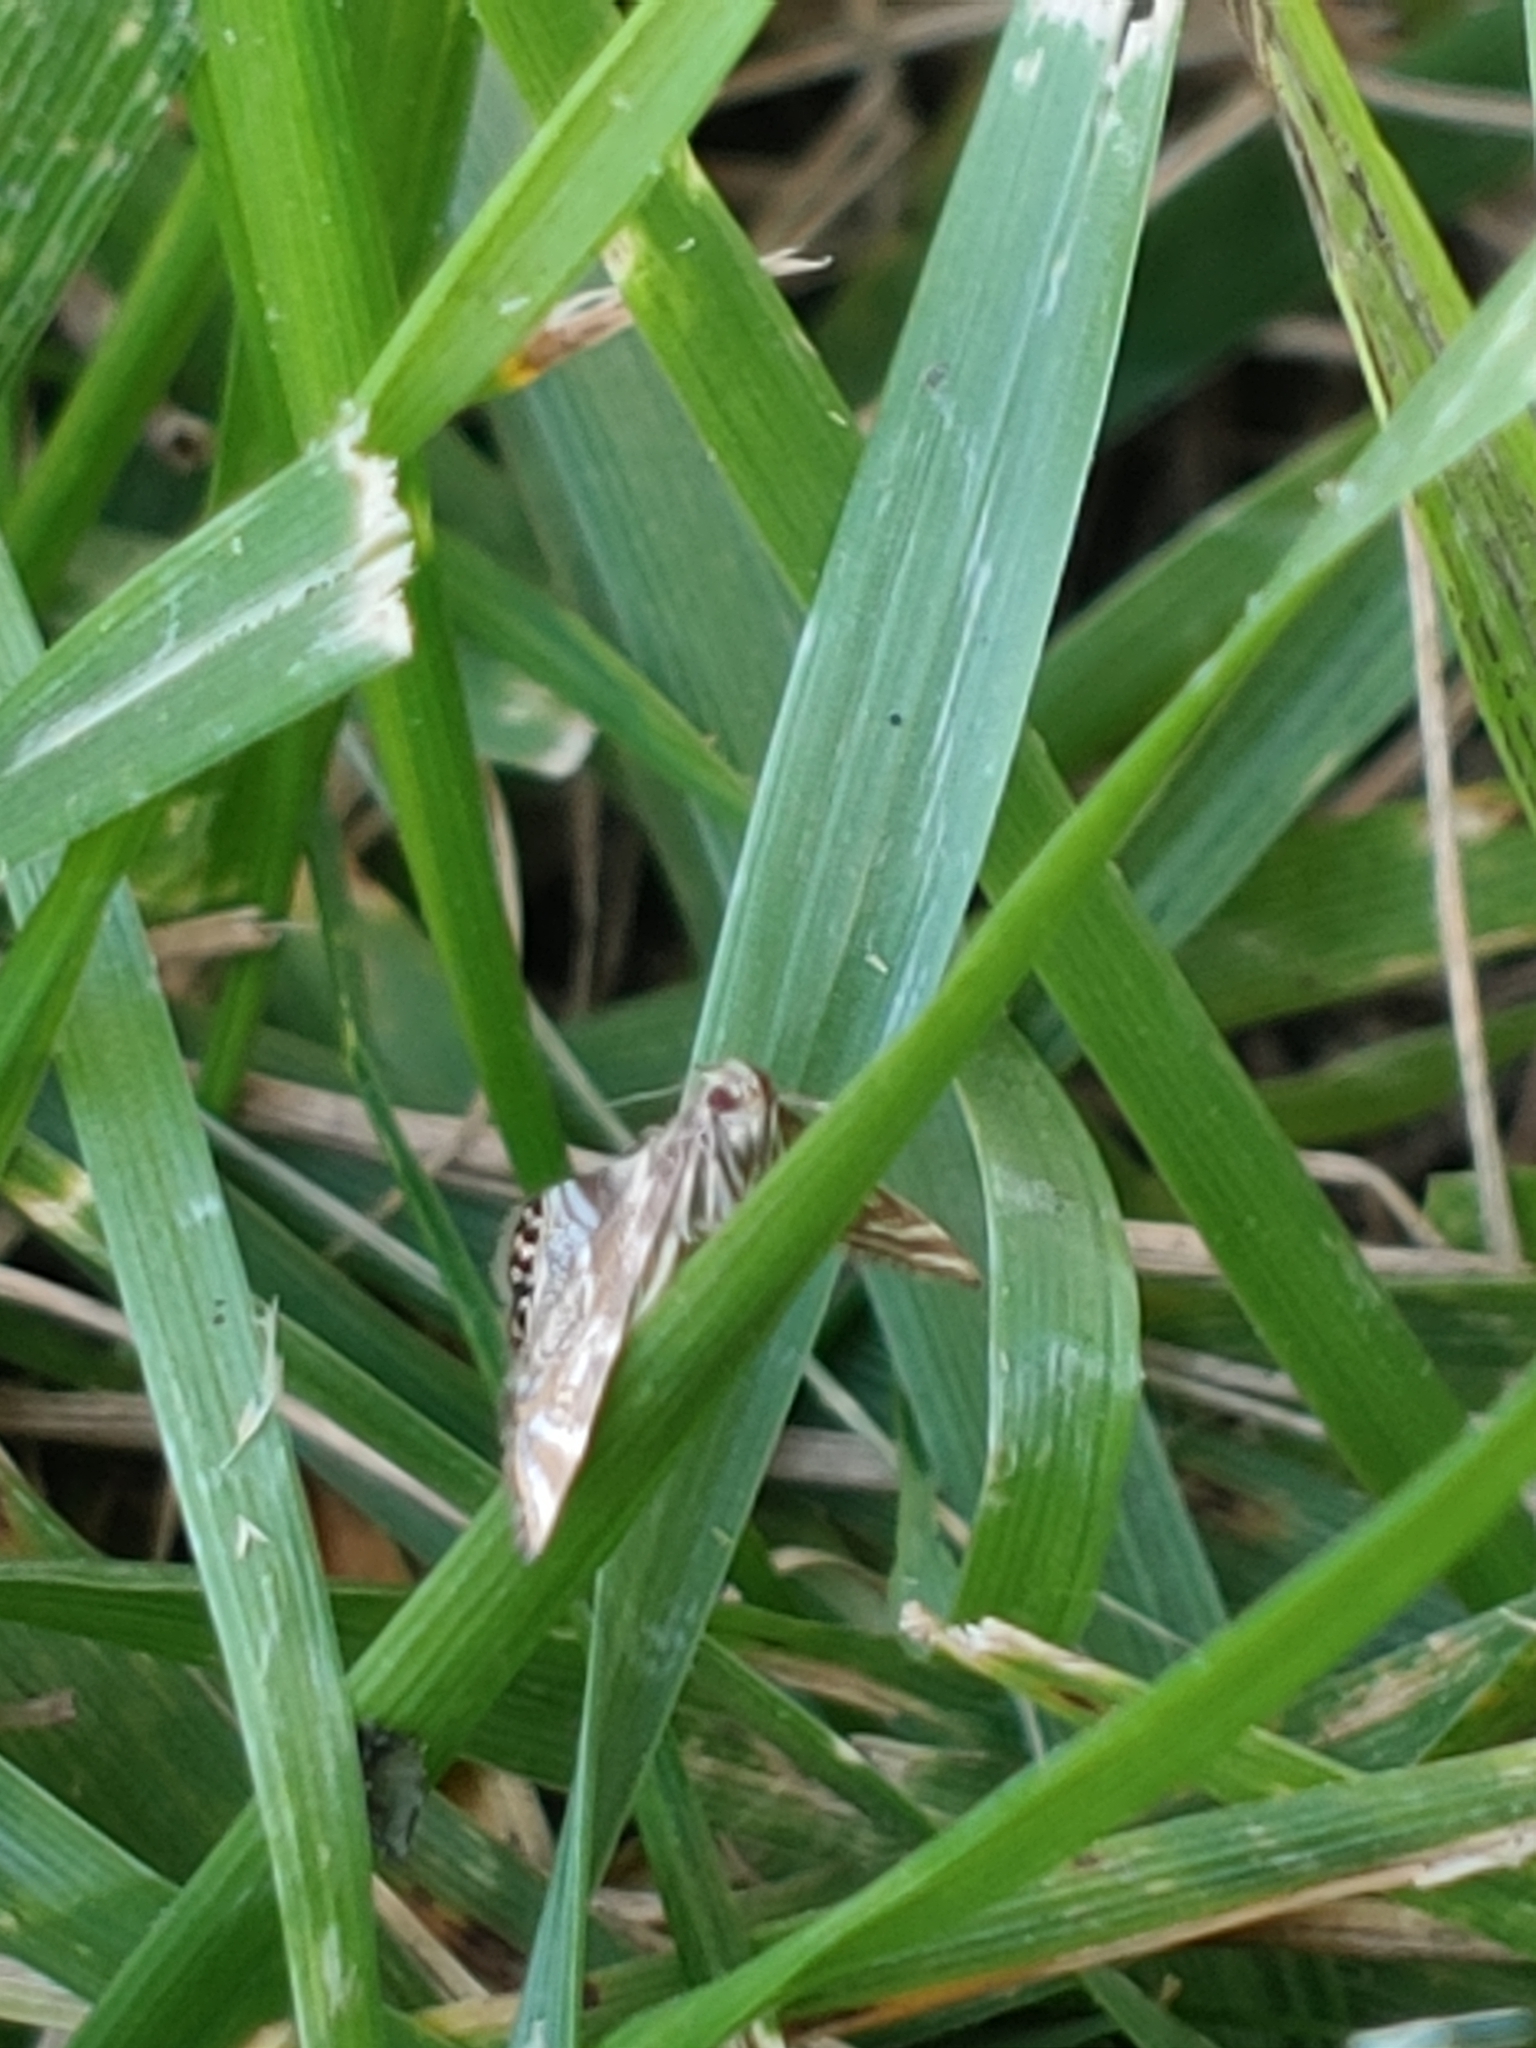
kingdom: Animalia
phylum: Arthropoda
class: Insecta
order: Lepidoptera
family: Crambidae
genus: Petrophila
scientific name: Petrophila canadensis
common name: Canadian petrophila
